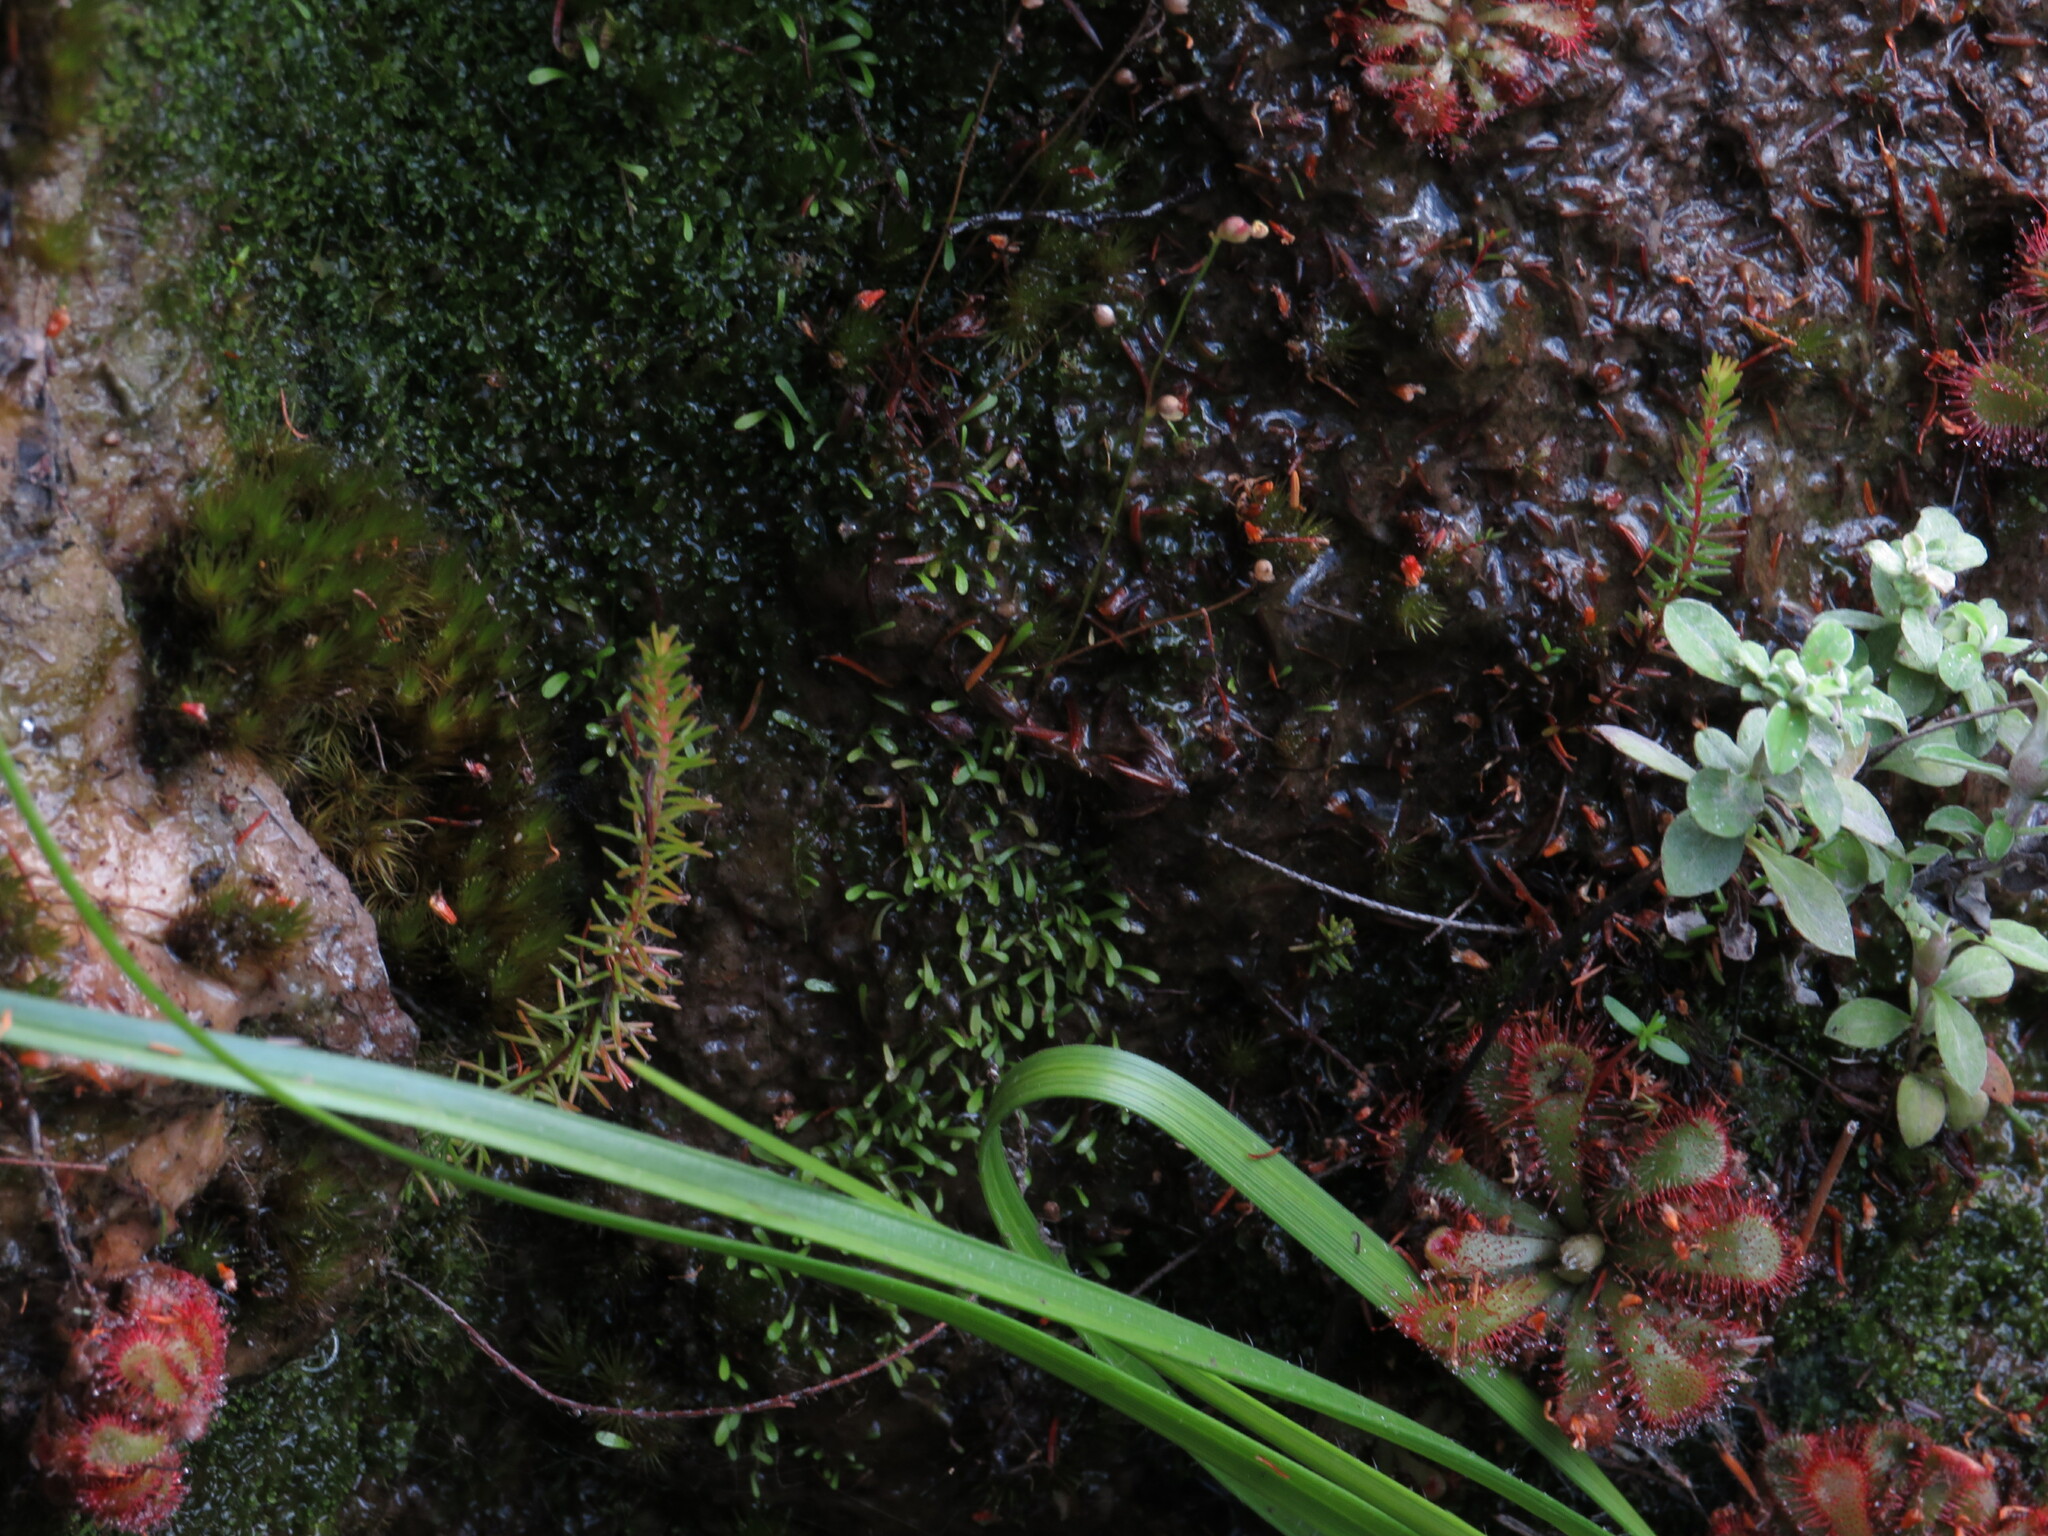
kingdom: Plantae
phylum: Tracheophyta
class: Magnoliopsida
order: Caryophyllales
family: Droseraceae
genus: Drosera
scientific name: Drosera aliciae
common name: Alice sundew
